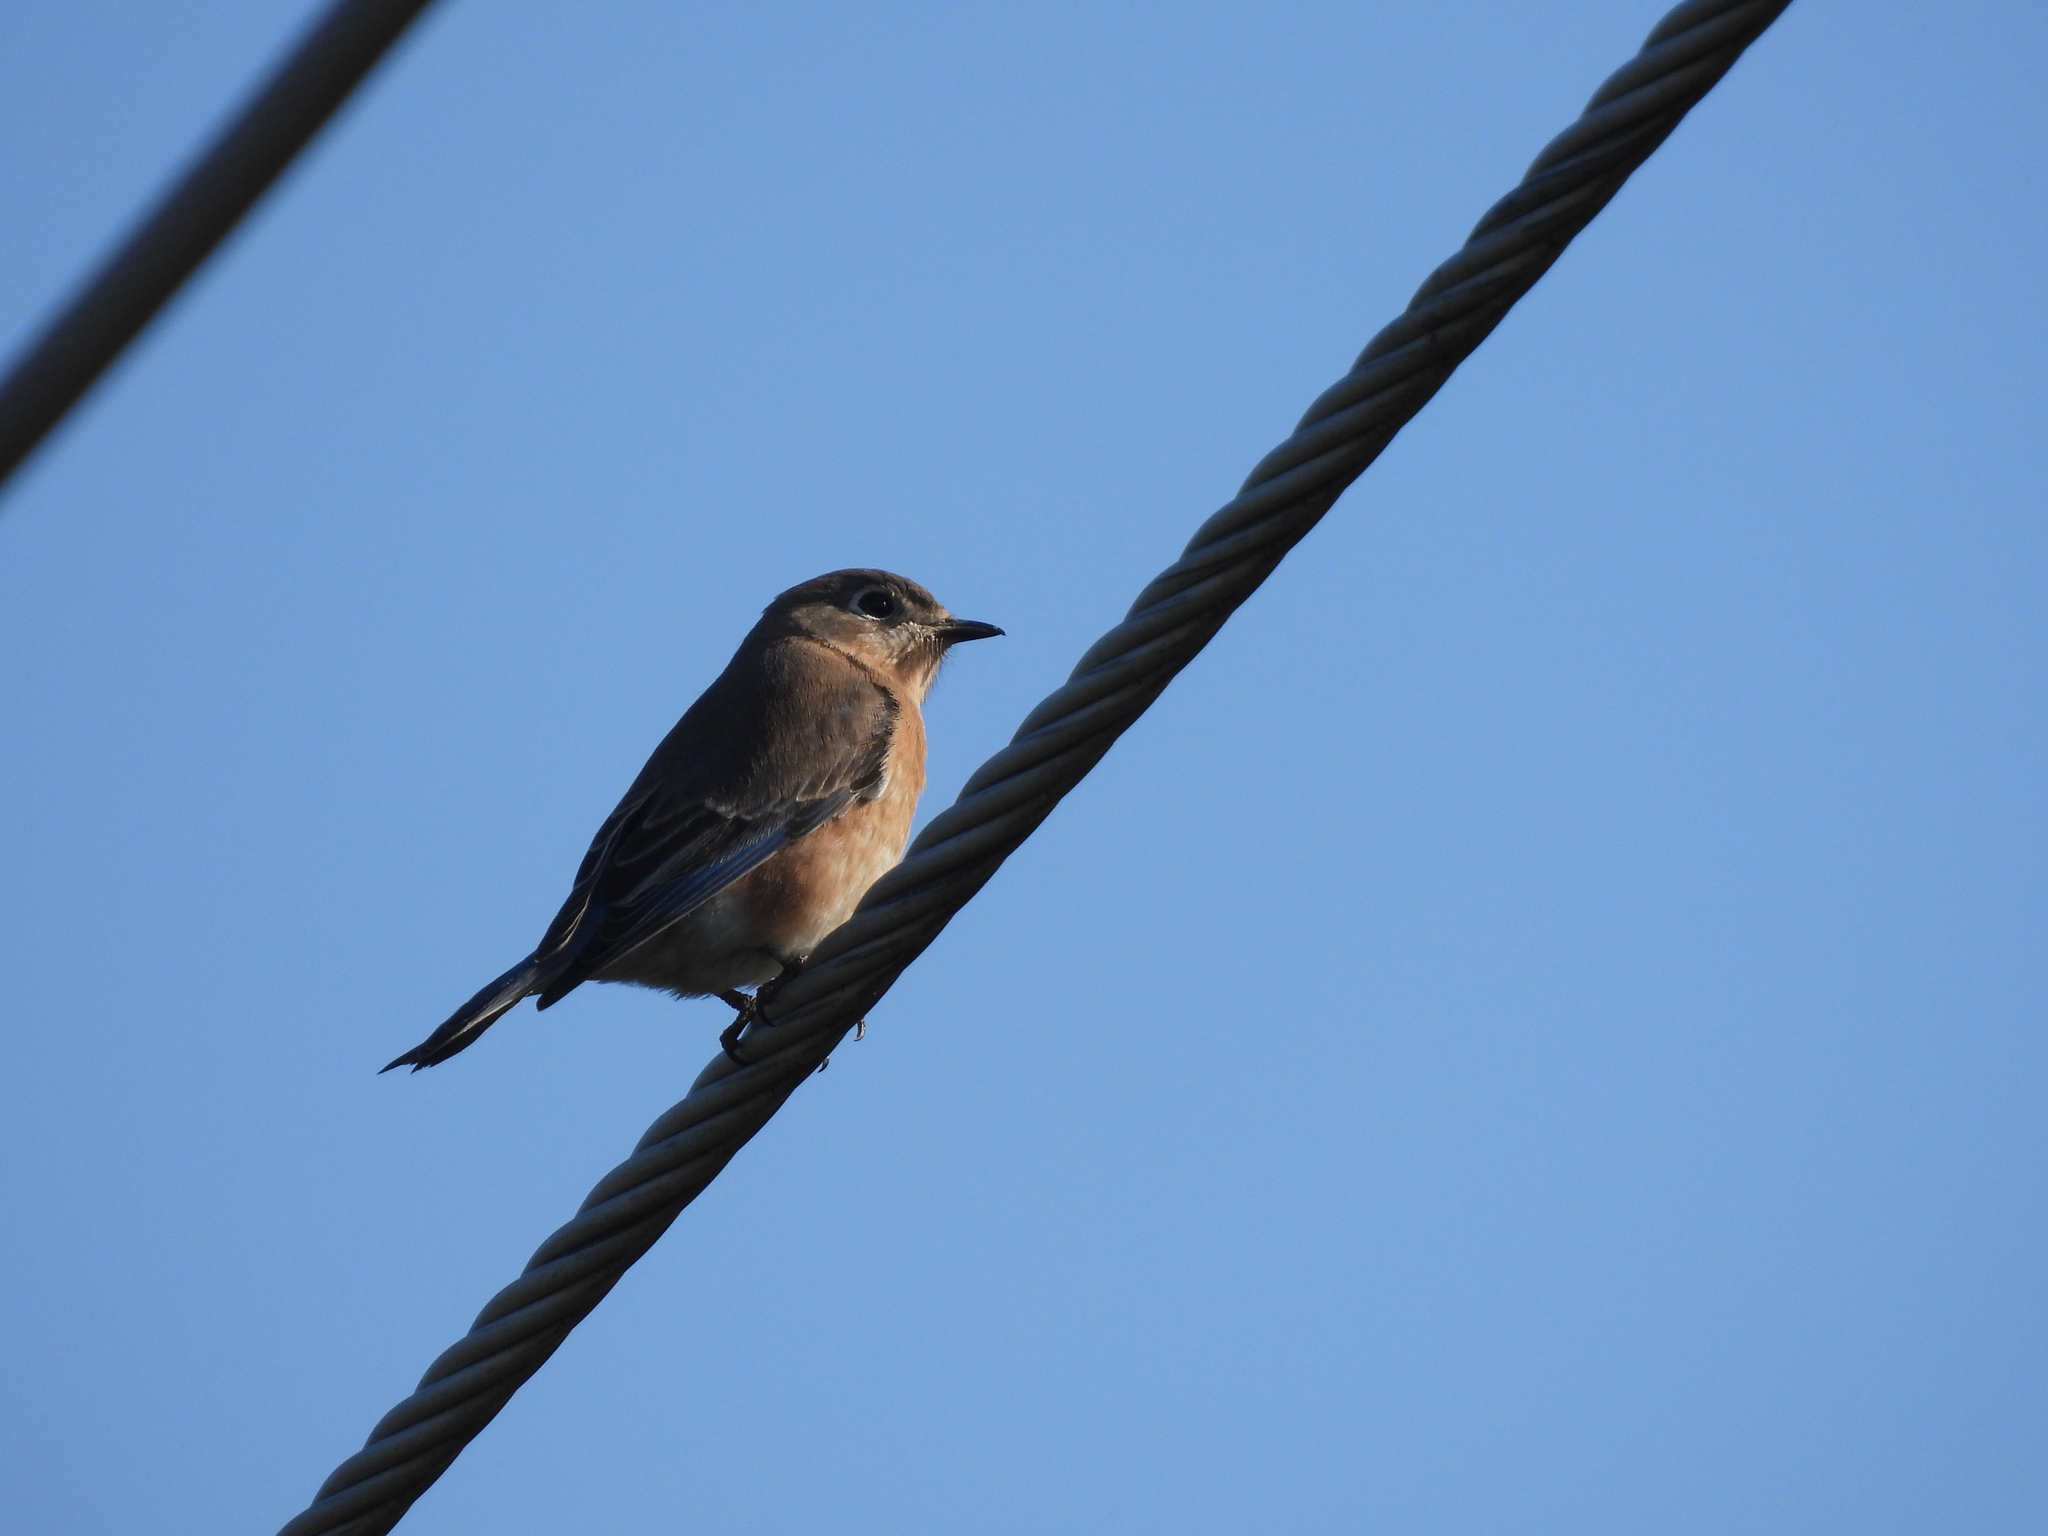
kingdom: Animalia
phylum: Chordata
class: Aves
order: Passeriformes
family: Turdidae
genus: Sialia
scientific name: Sialia sialis
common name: Eastern bluebird
